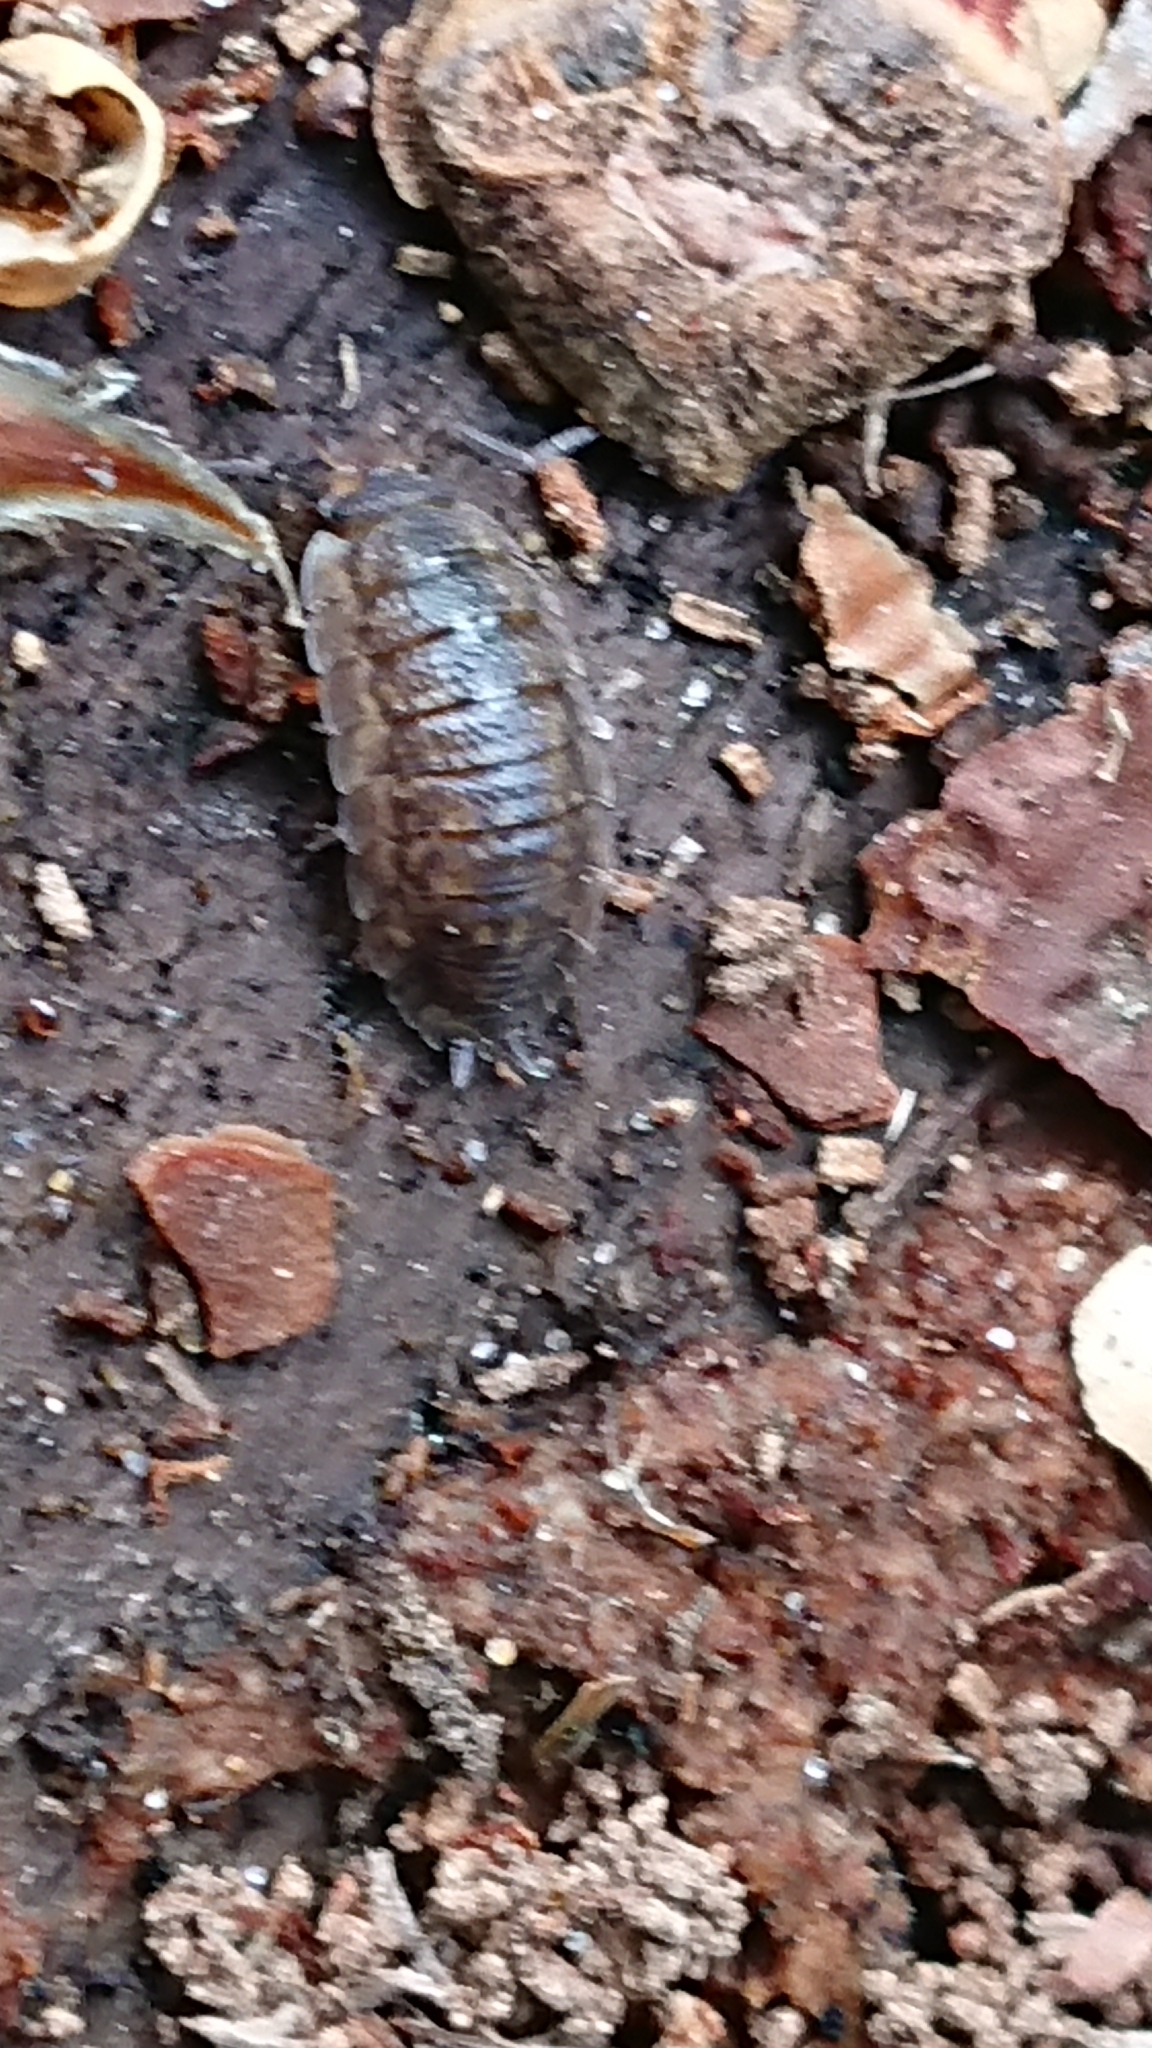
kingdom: Animalia
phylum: Arthropoda
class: Malacostraca
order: Isopoda
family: Porcellionidae
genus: Porcellio
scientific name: Porcellio scaber
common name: Common rough woodlouse
